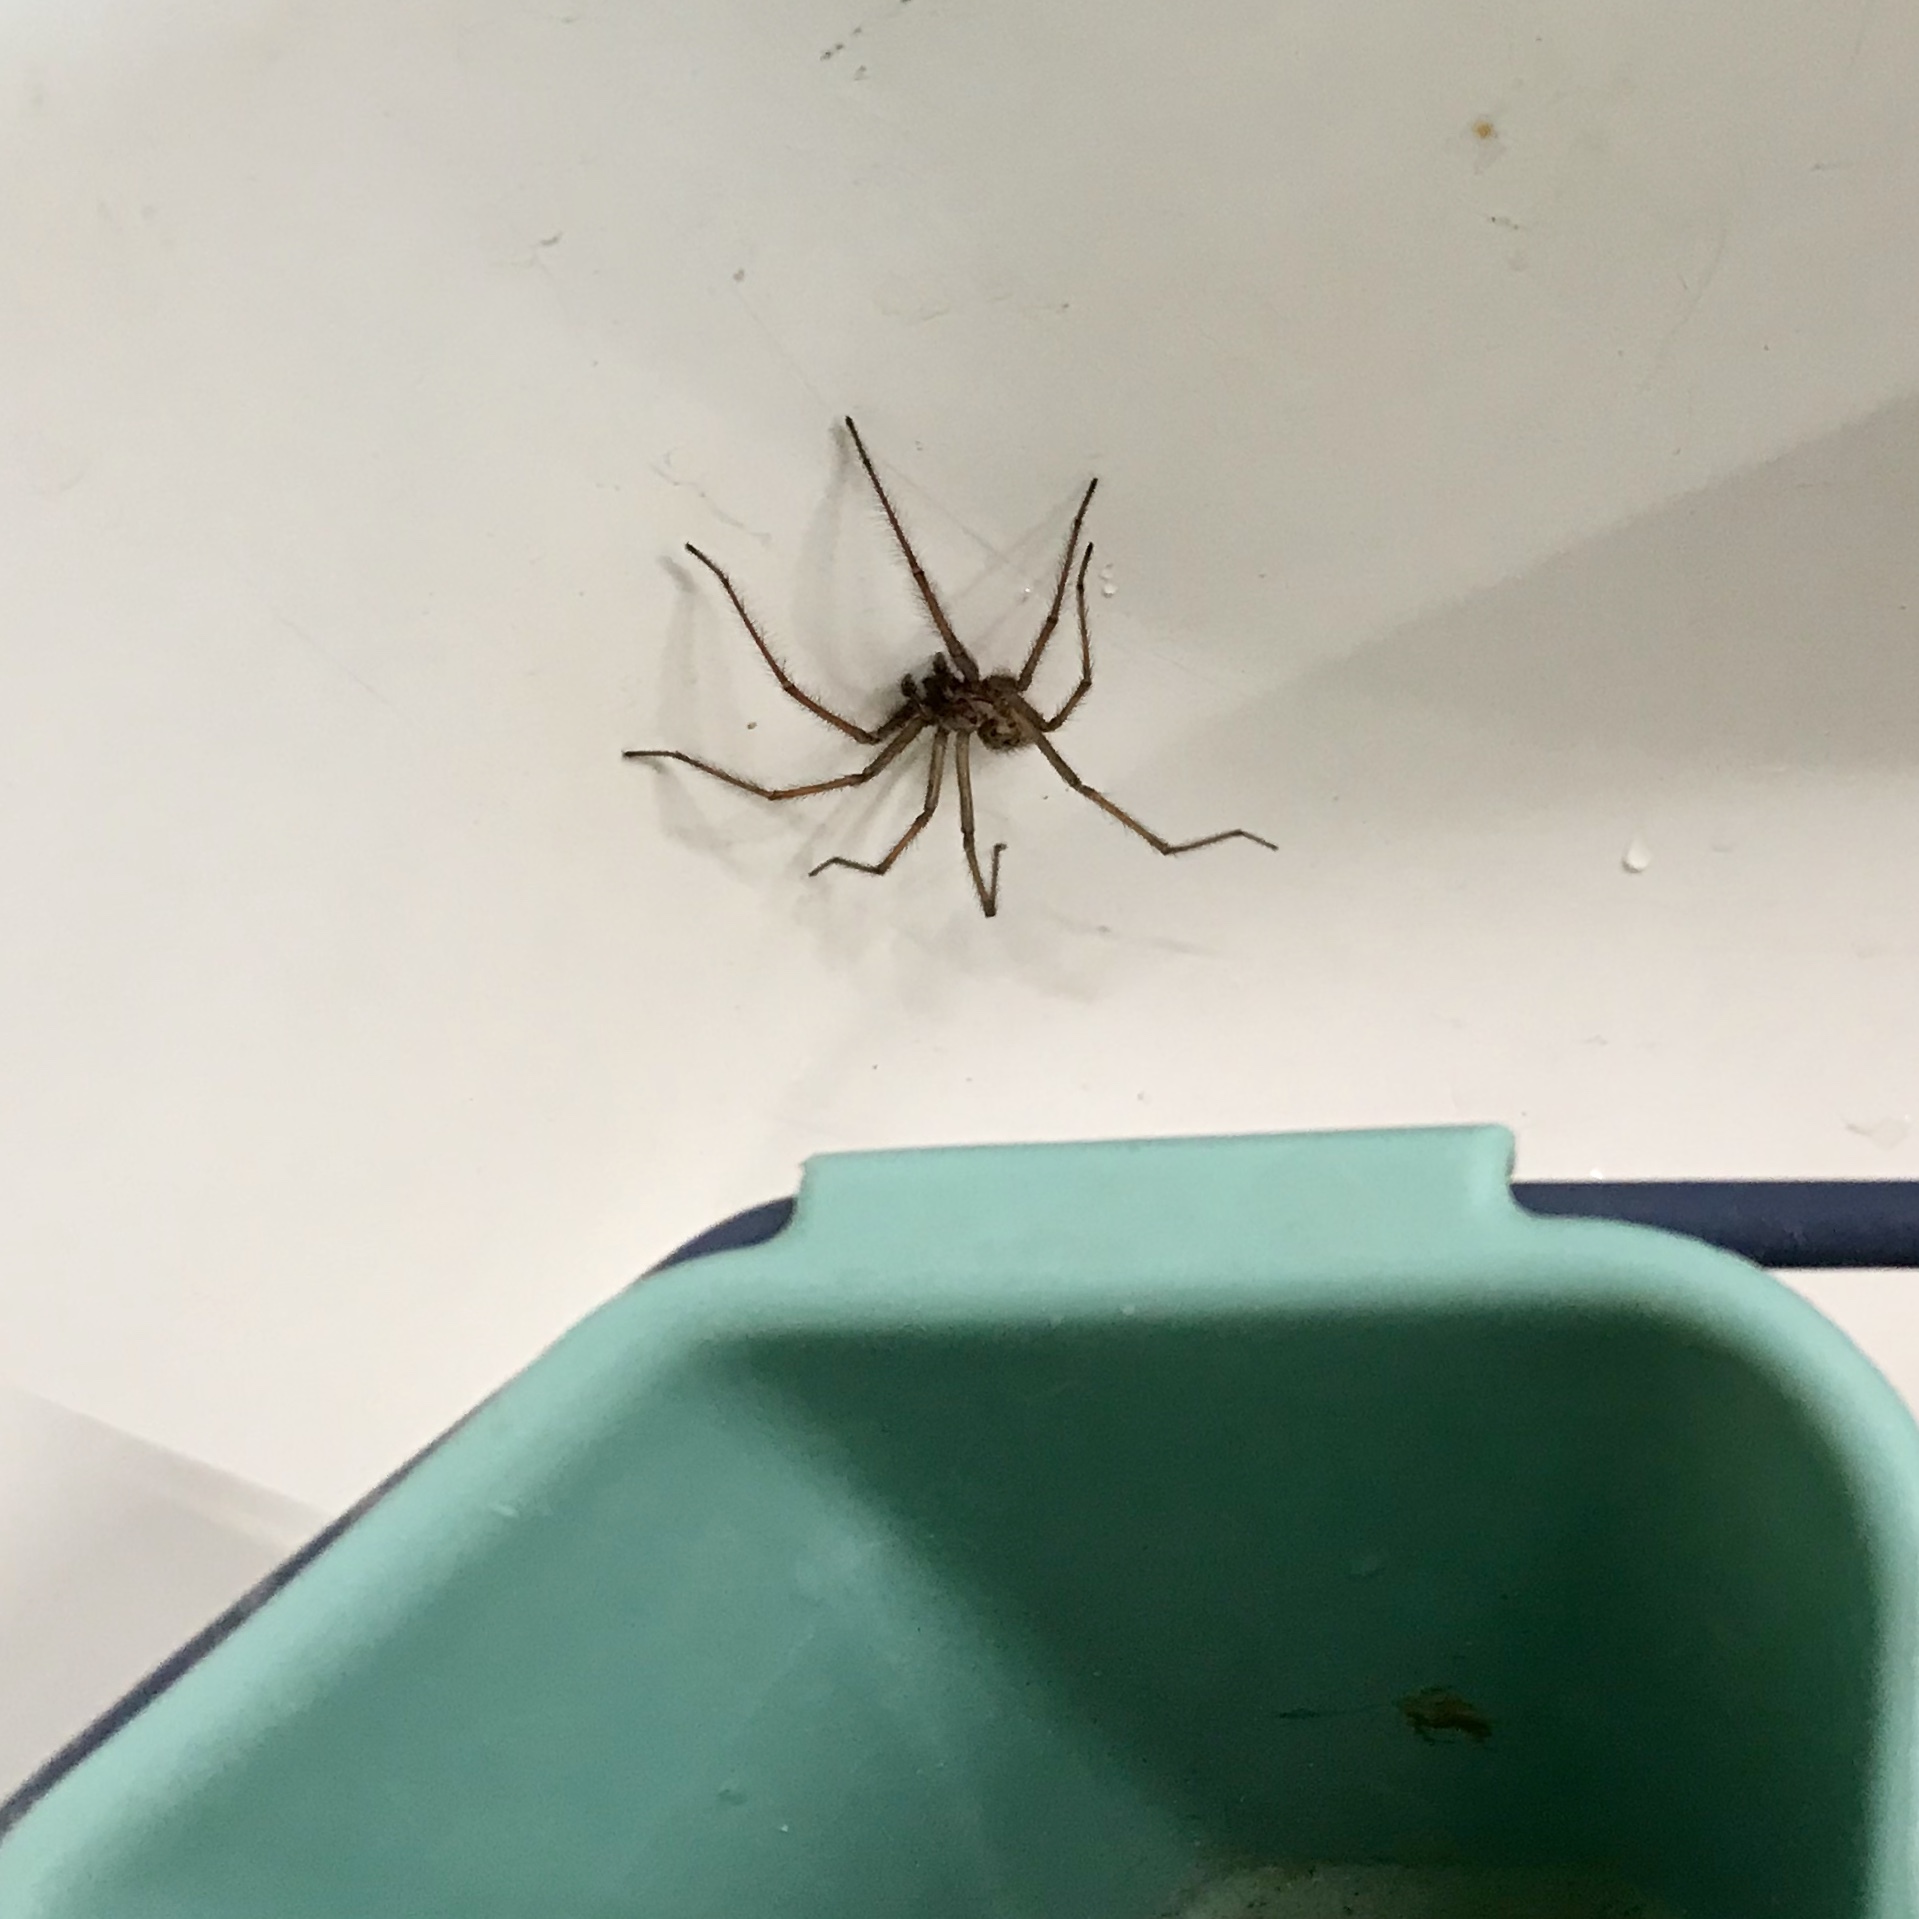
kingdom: Animalia
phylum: Arthropoda
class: Arachnida
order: Araneae
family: Agelenidae
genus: Eratigena
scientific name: Eratigena duellica
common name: Giant house spider
